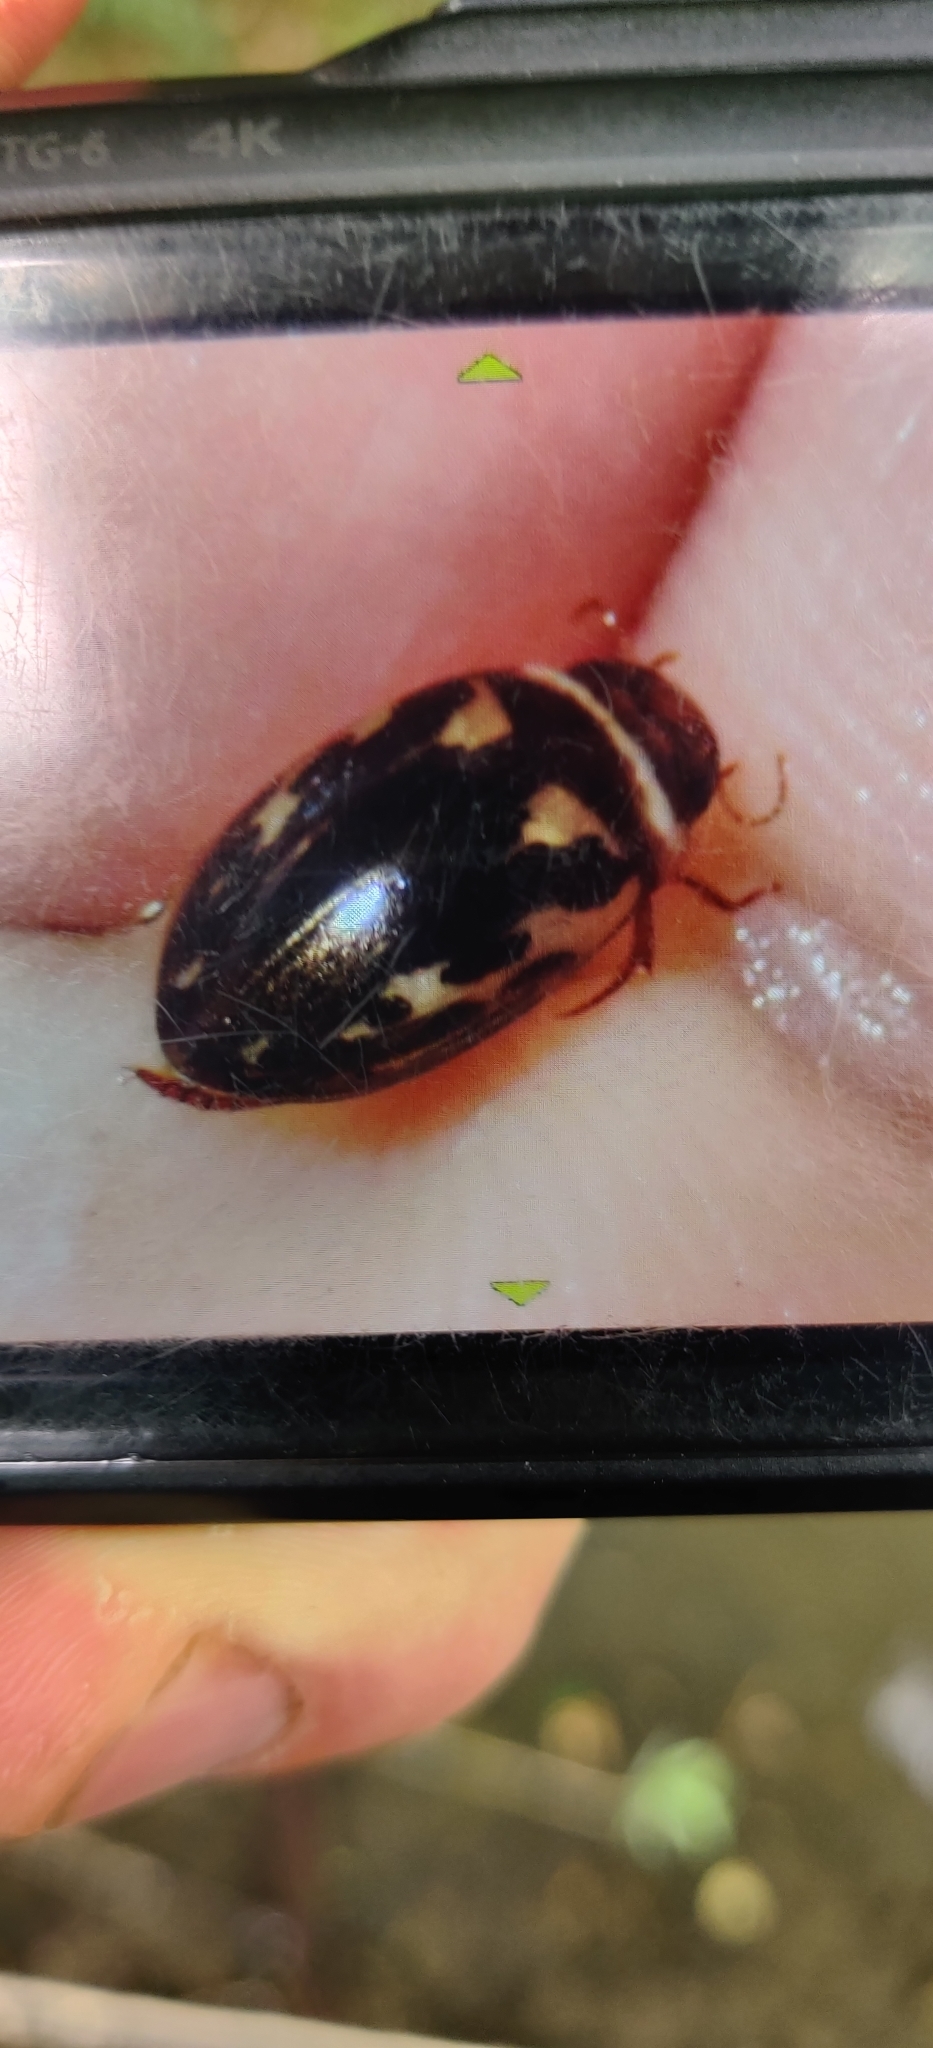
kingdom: Animalia
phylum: Arthropoda
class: Insecta
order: Coleoptera
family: Dytiscidae
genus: Platambus
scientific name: Platambus maculatus
